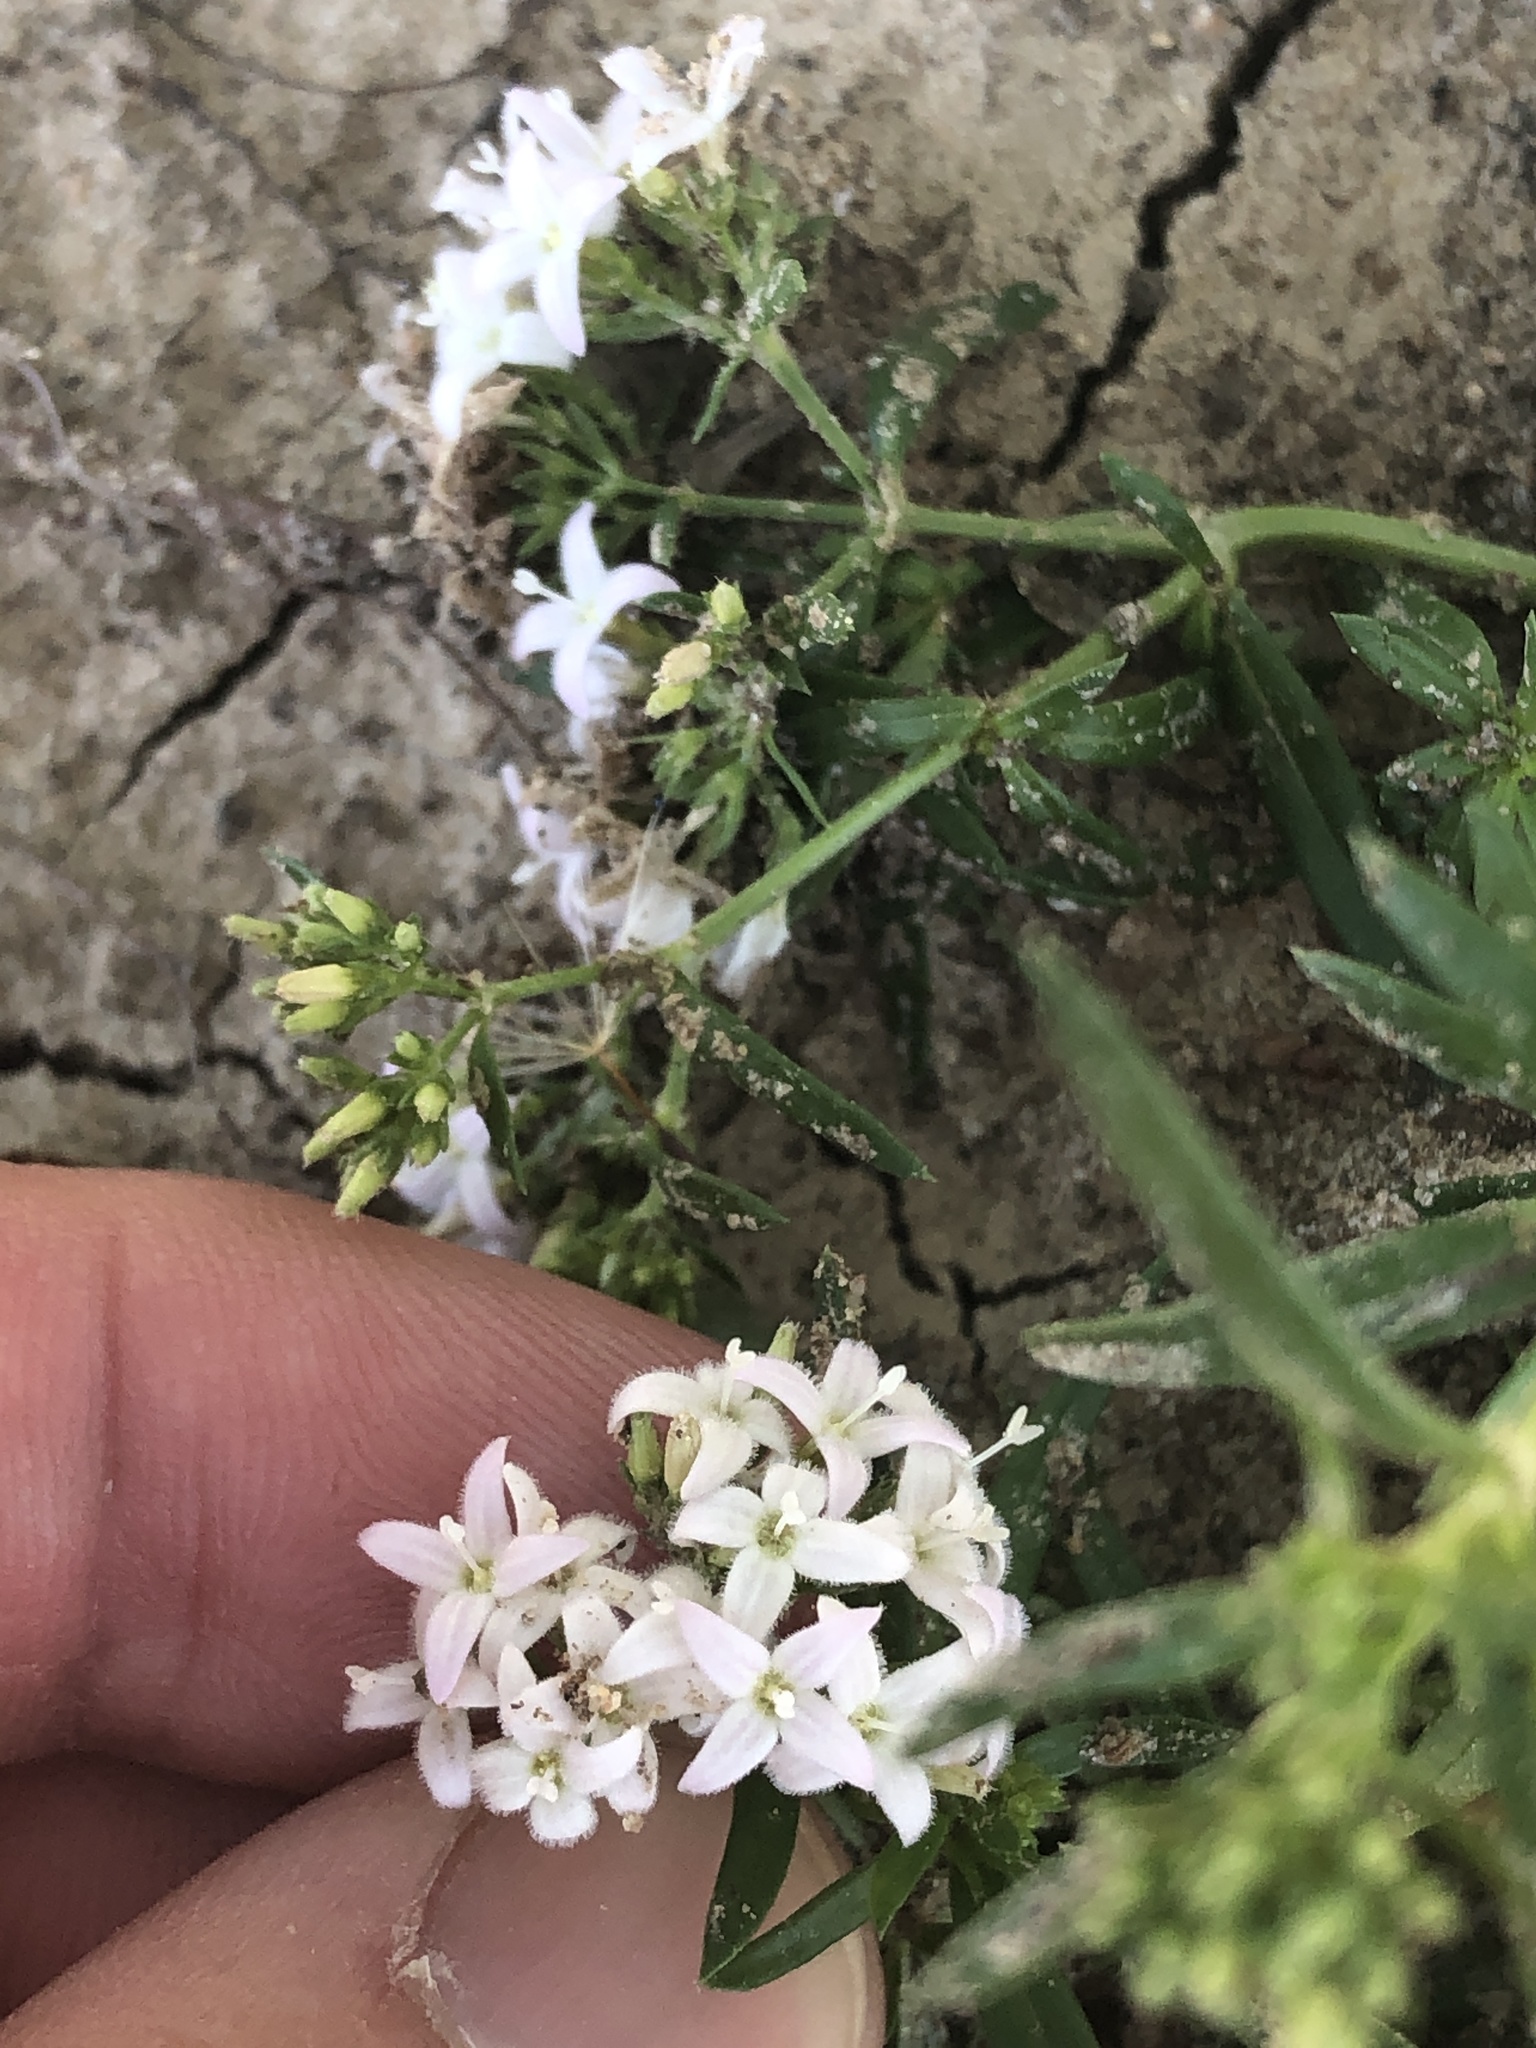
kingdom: Plantae
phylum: Tracheophyta
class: Magnoliopsida
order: Gentianales
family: Rubiaceae
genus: Stenaria
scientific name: Stenaria nigricans
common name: Diamondflowers
